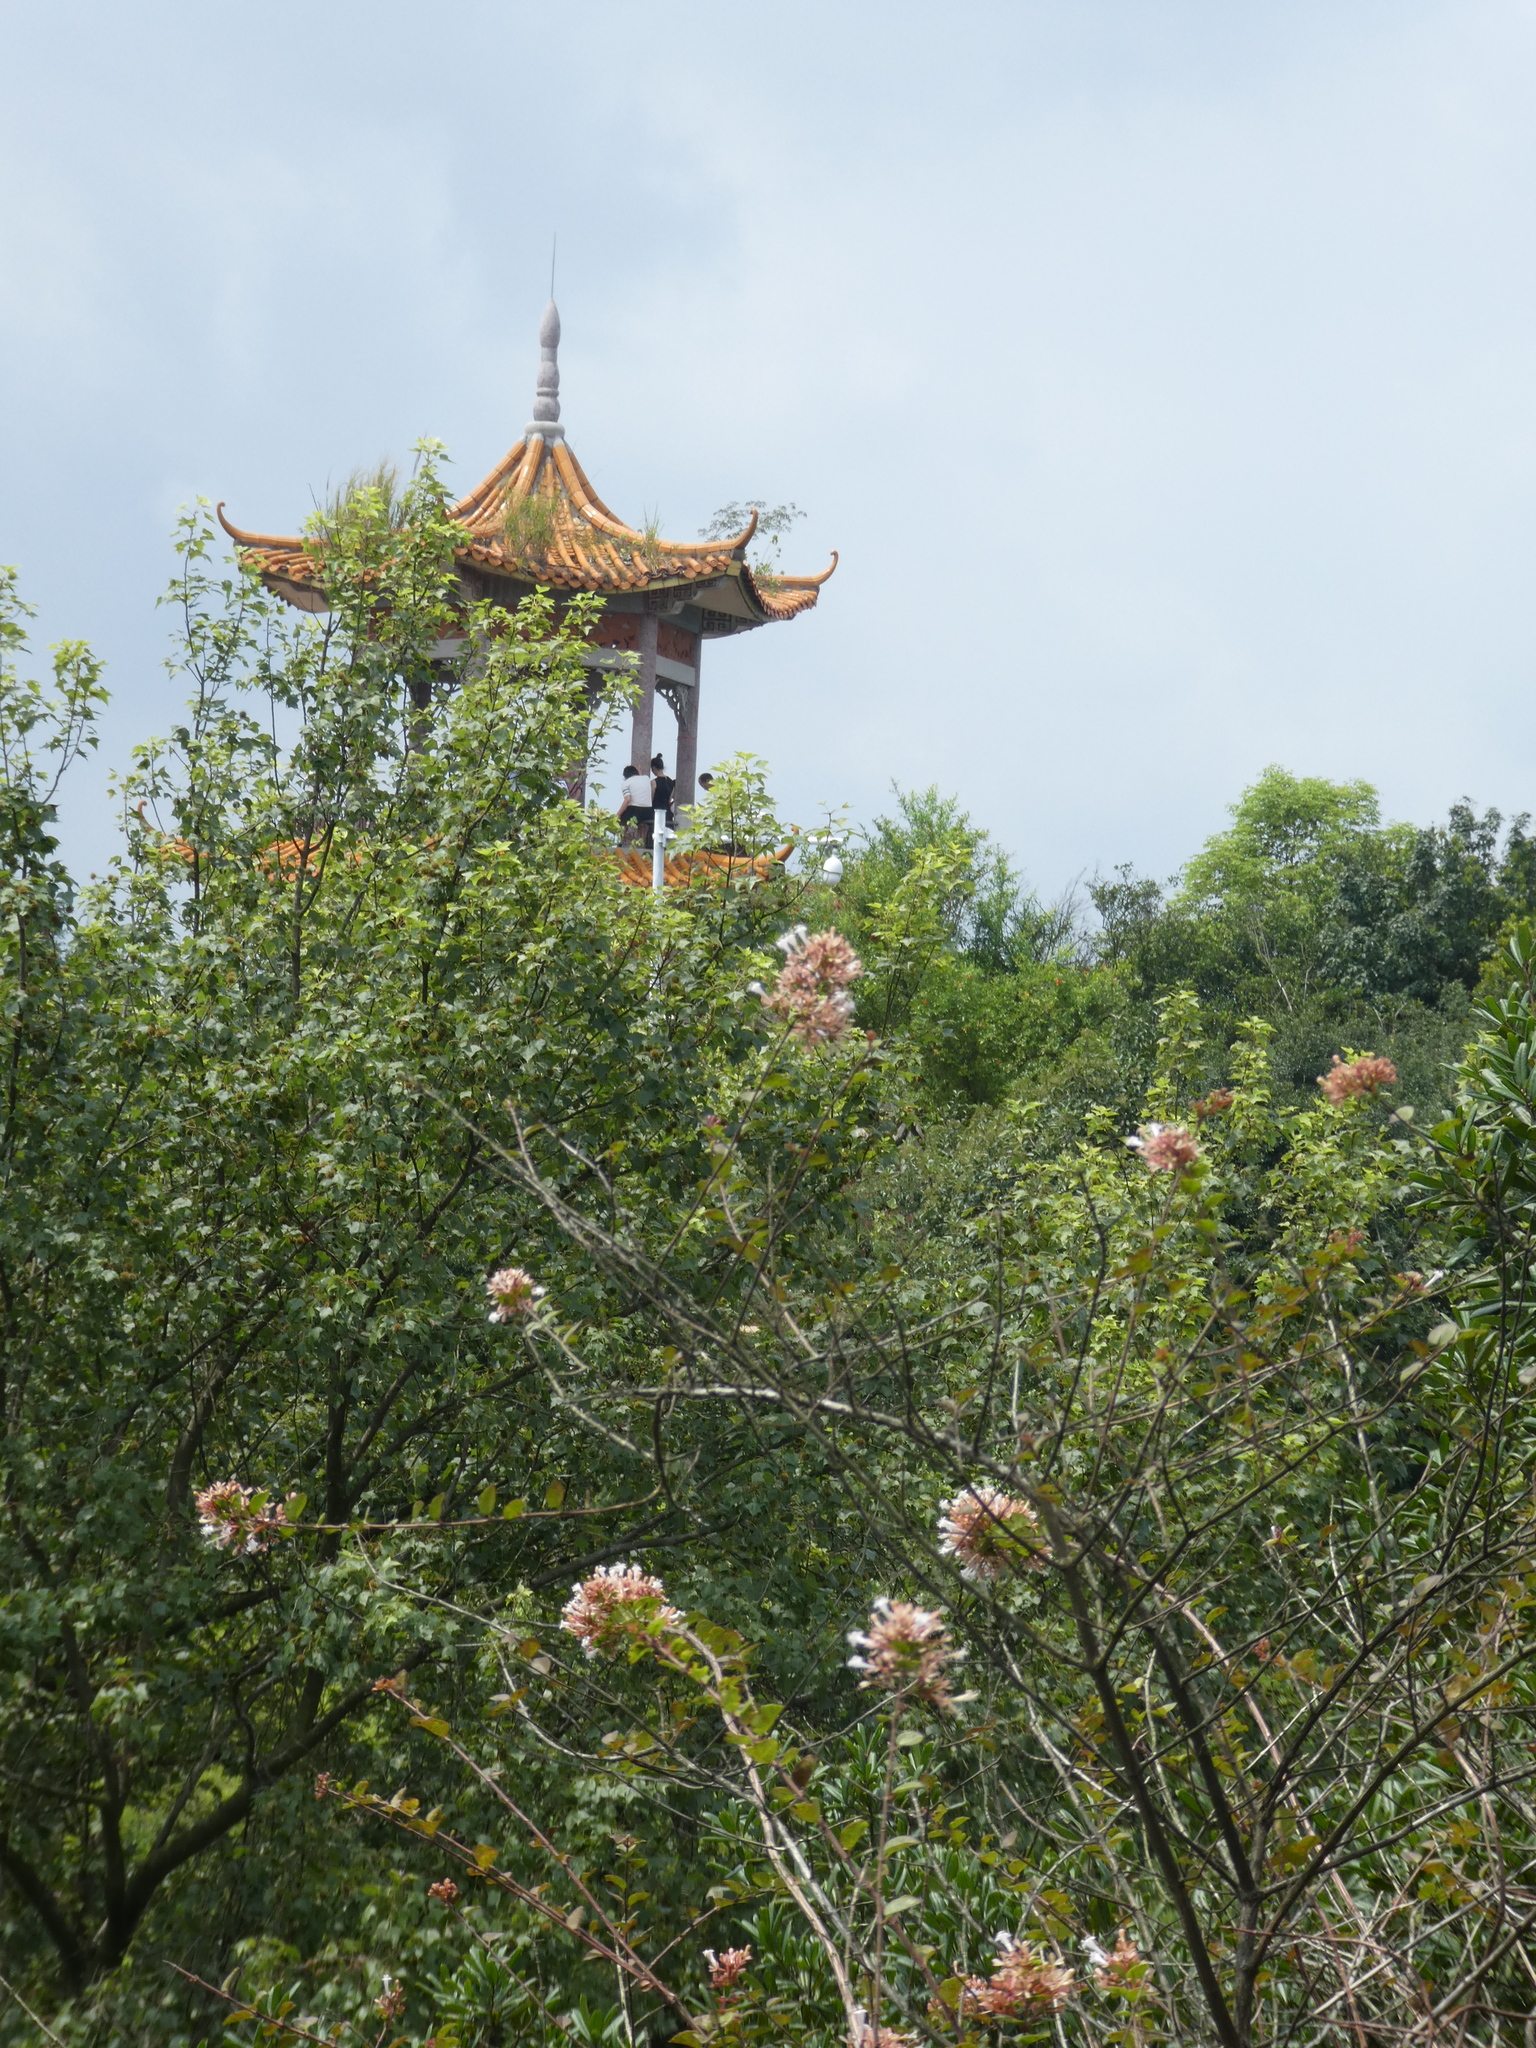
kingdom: Plantae
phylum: Tracheophyta
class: Magnoliopsida
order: Dipsacales
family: Caprifoliaceae
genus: Abelia
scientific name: Abelia chinensis
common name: Chinese abelia
